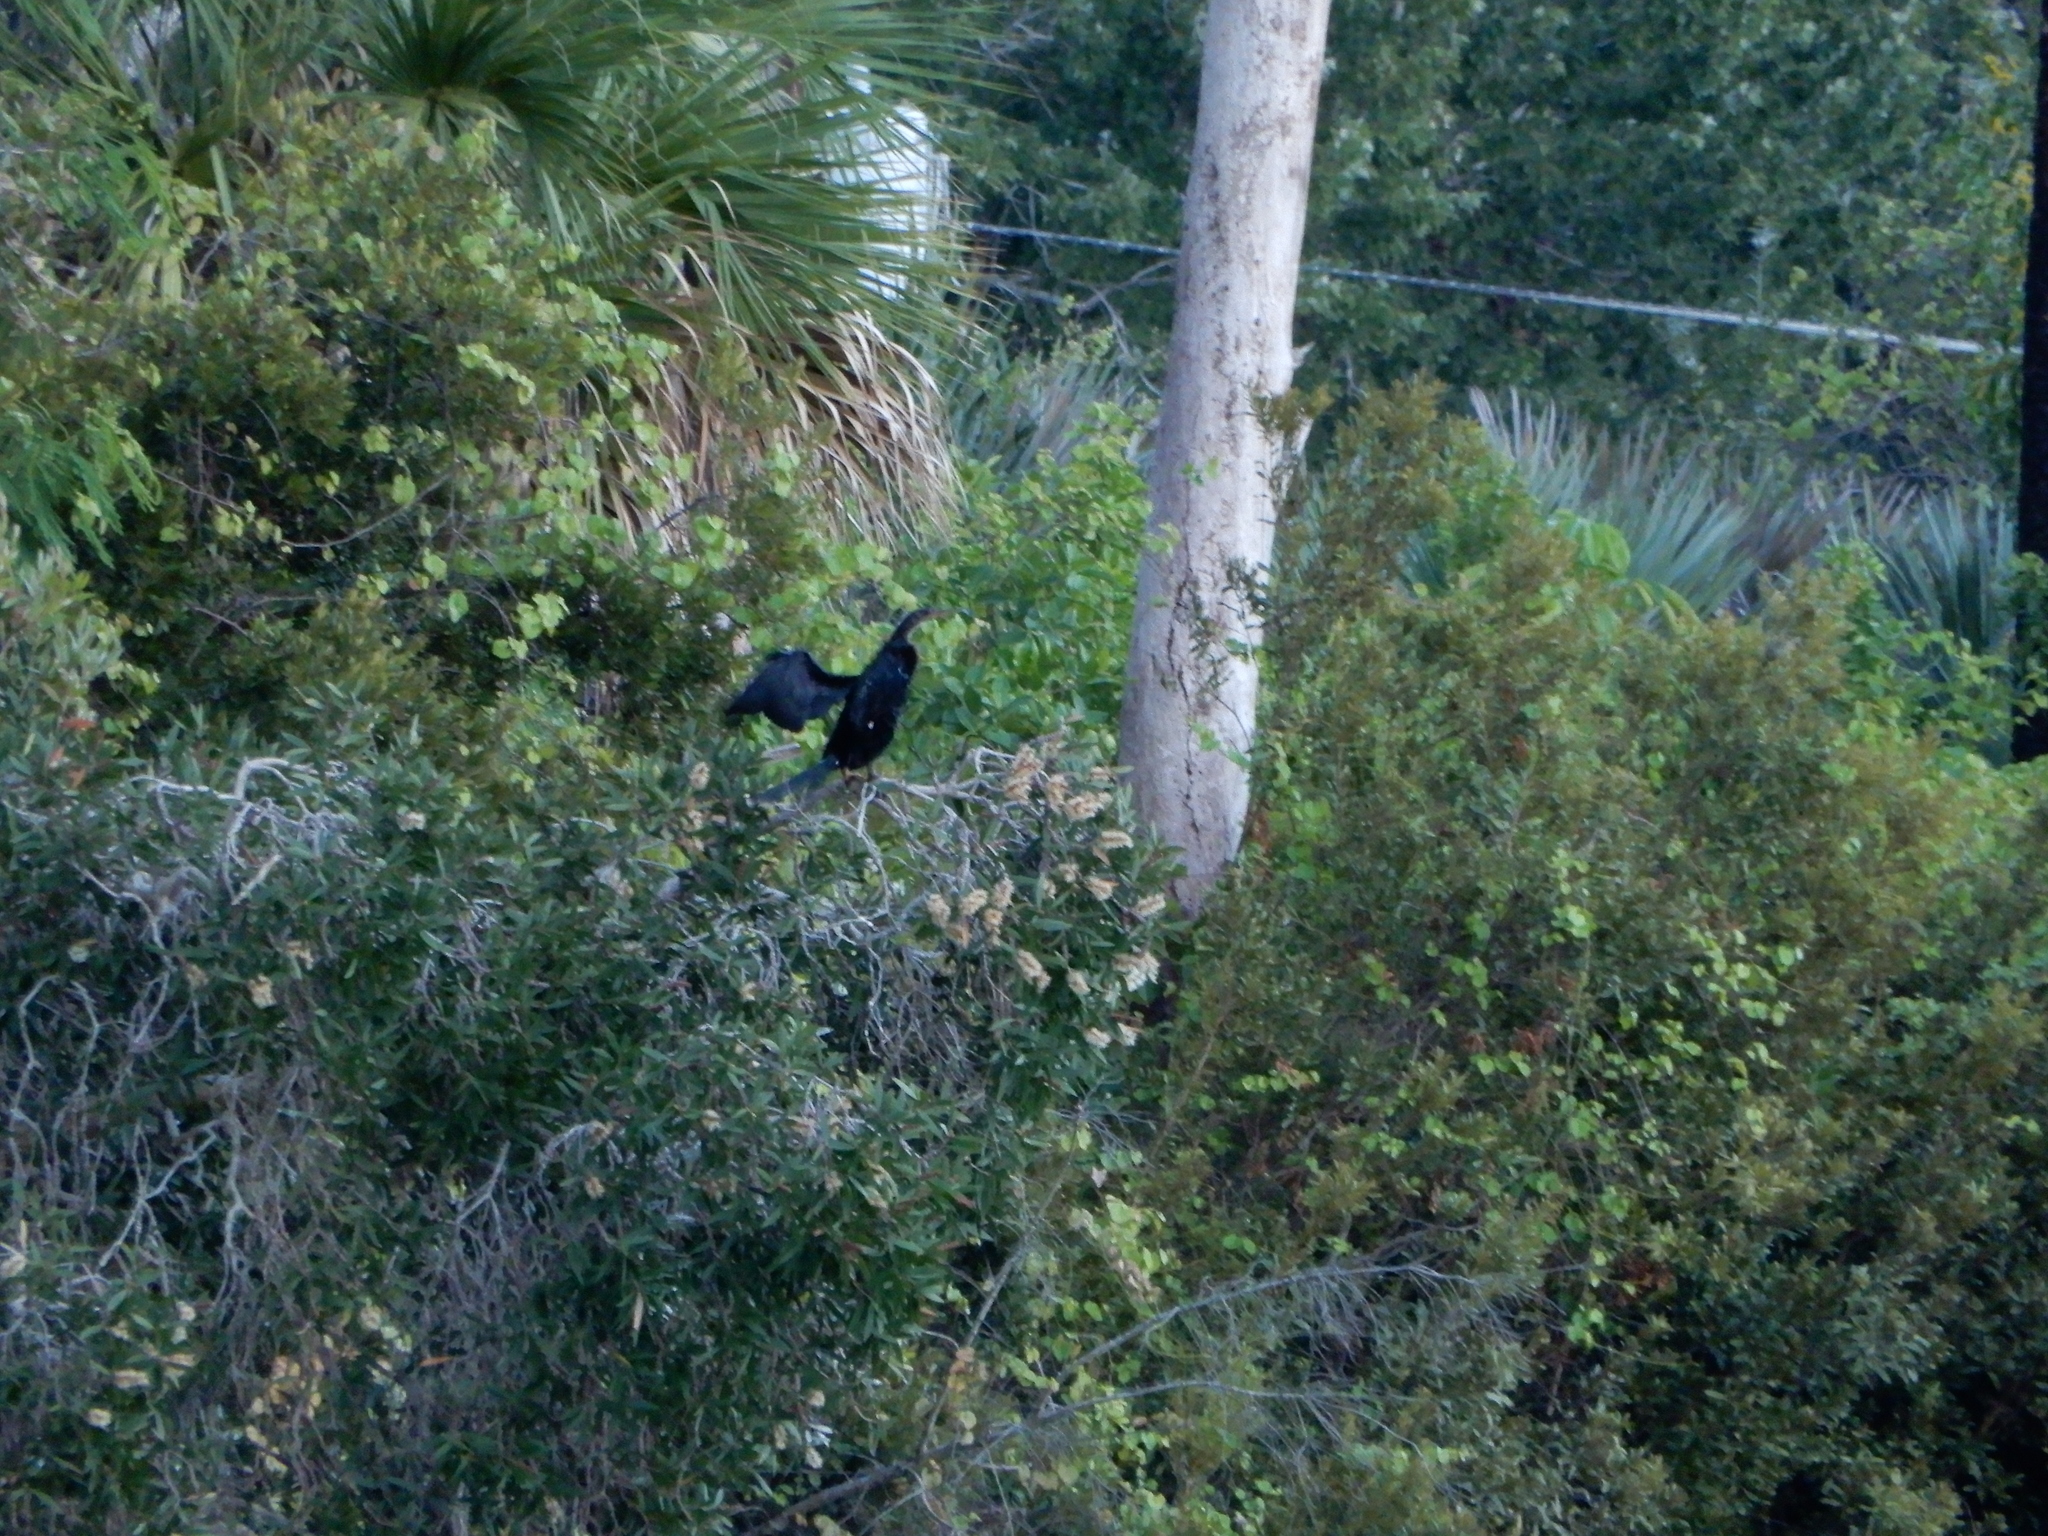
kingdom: Animalia
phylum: Chordata
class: Aves
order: Suliformes
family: Anhingidae
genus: Anhinga
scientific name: Anhinga anhinga
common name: Anhinga
